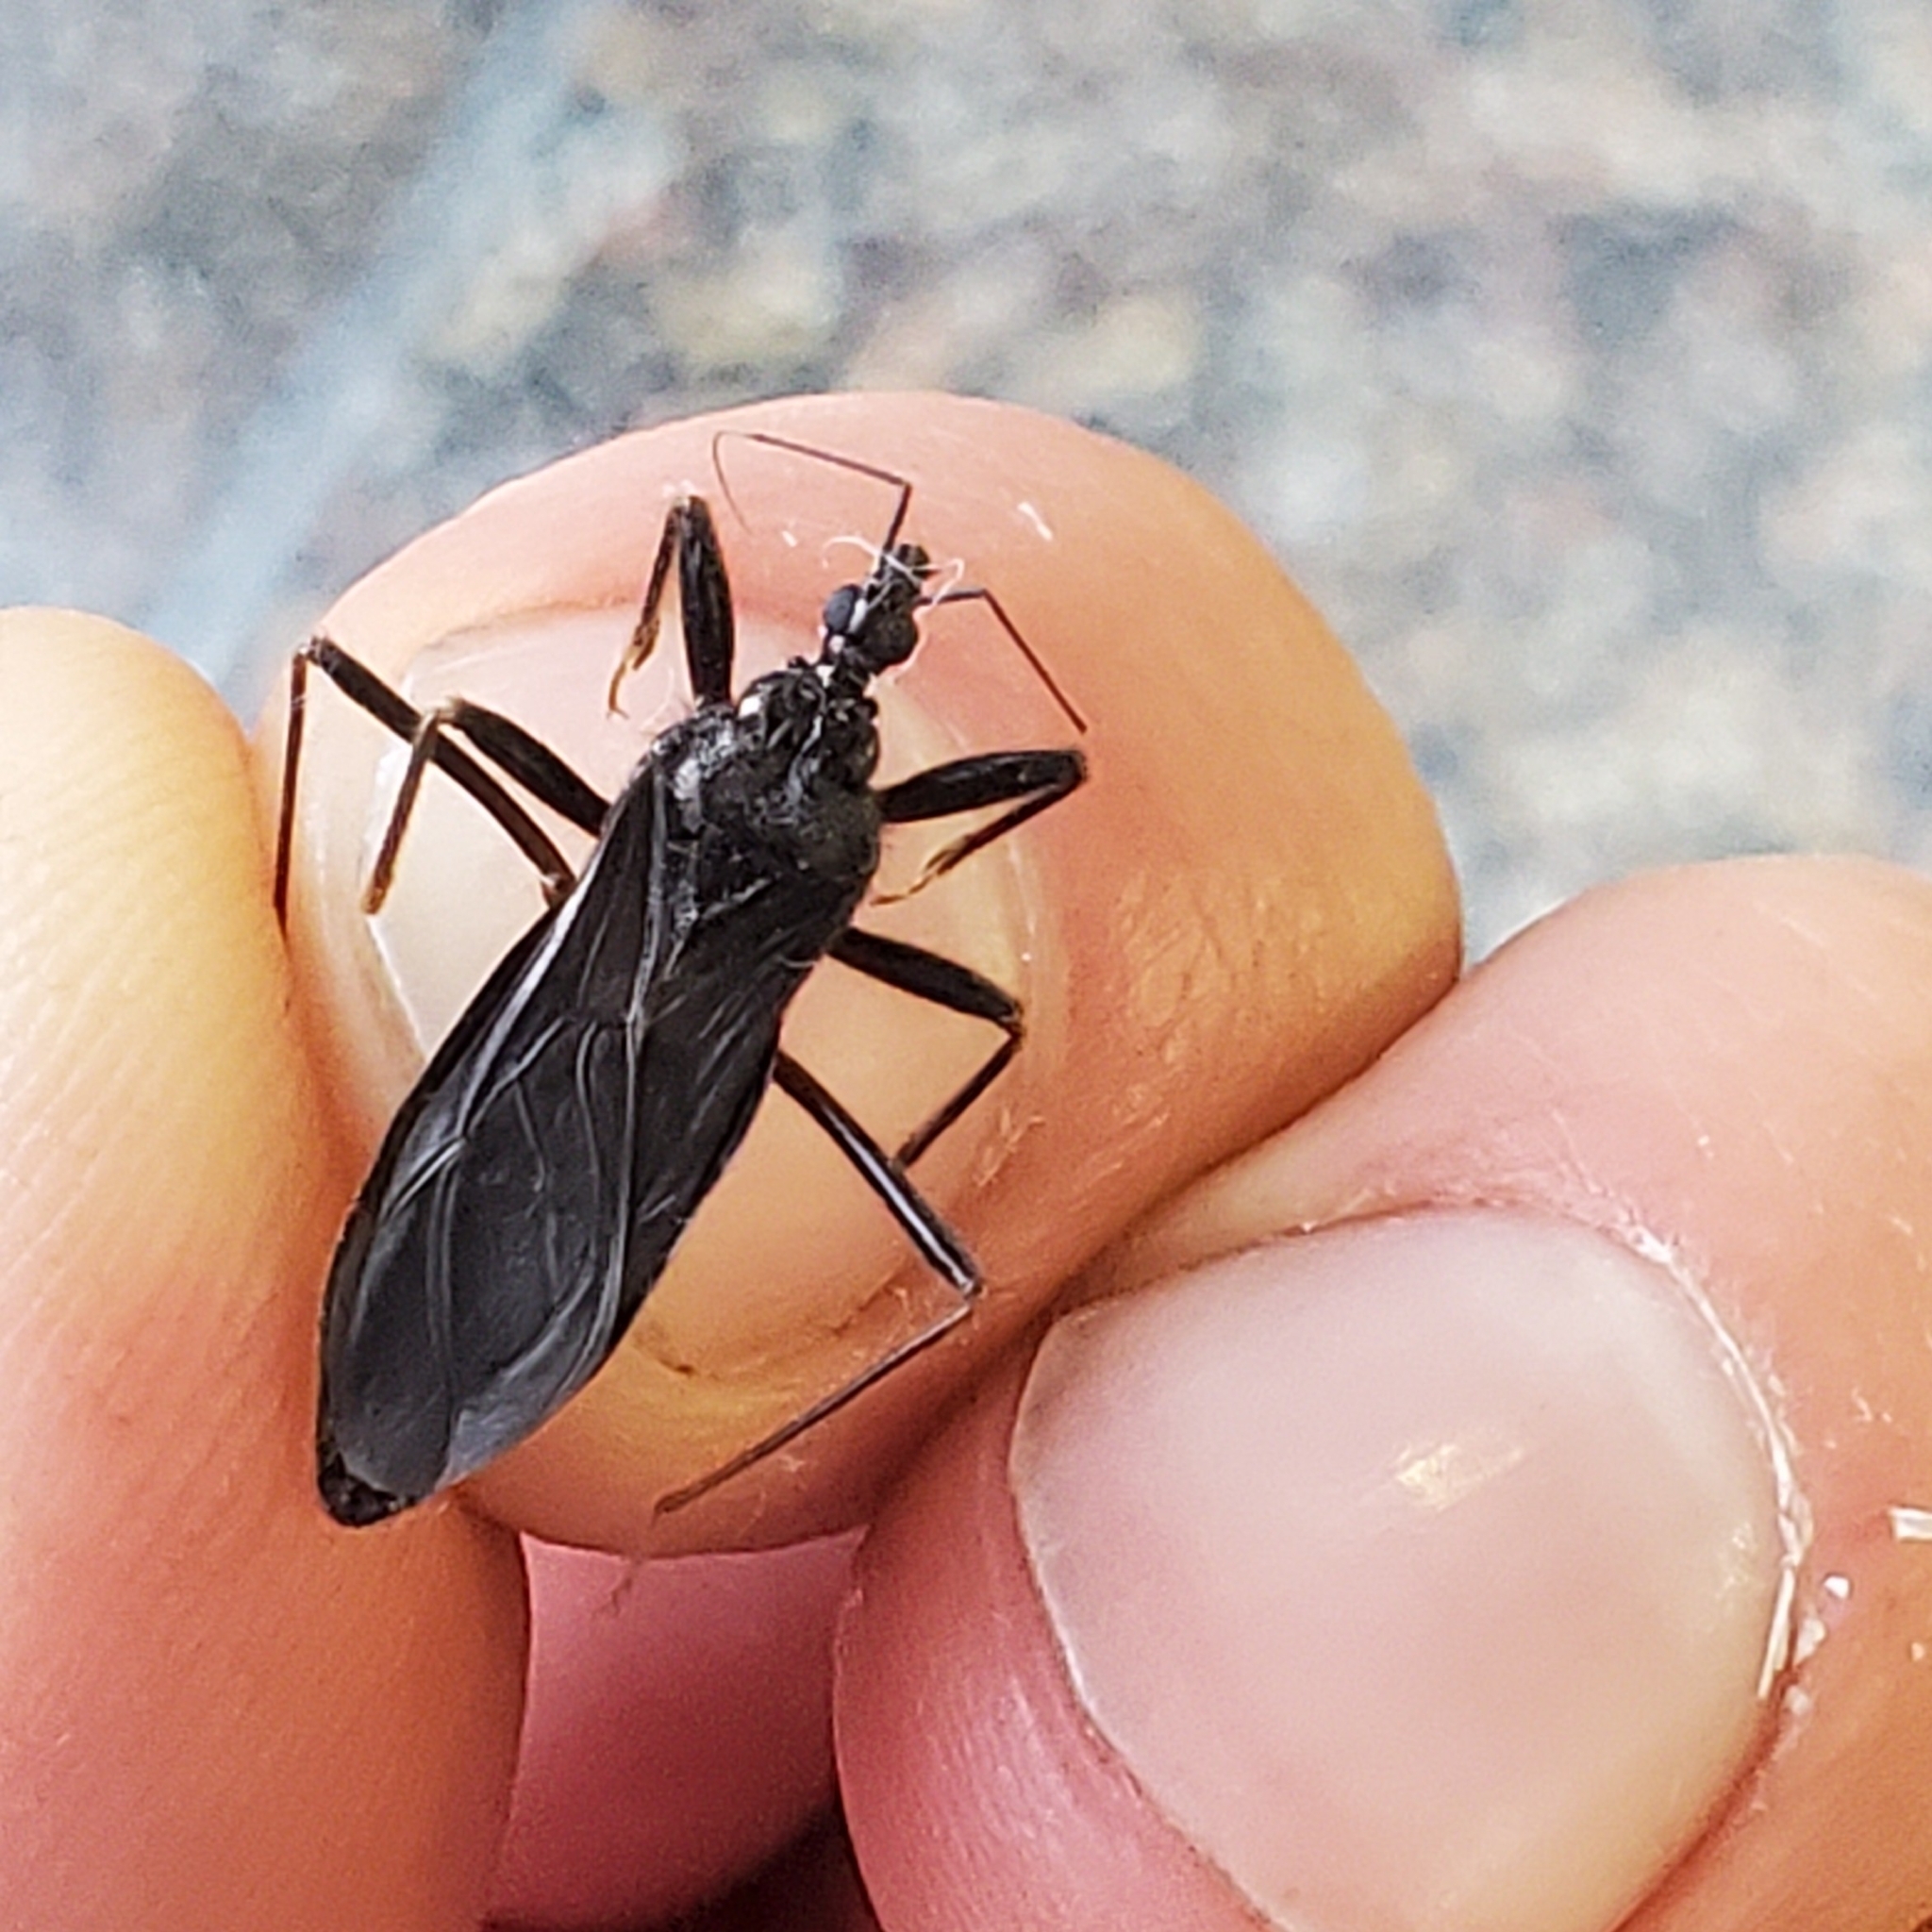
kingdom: Animalia
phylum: Arthropoda
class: Insecta
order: Hemiptera
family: Reduviidae
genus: Reduvius
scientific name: Reduvius personatus
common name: Masked hunter
